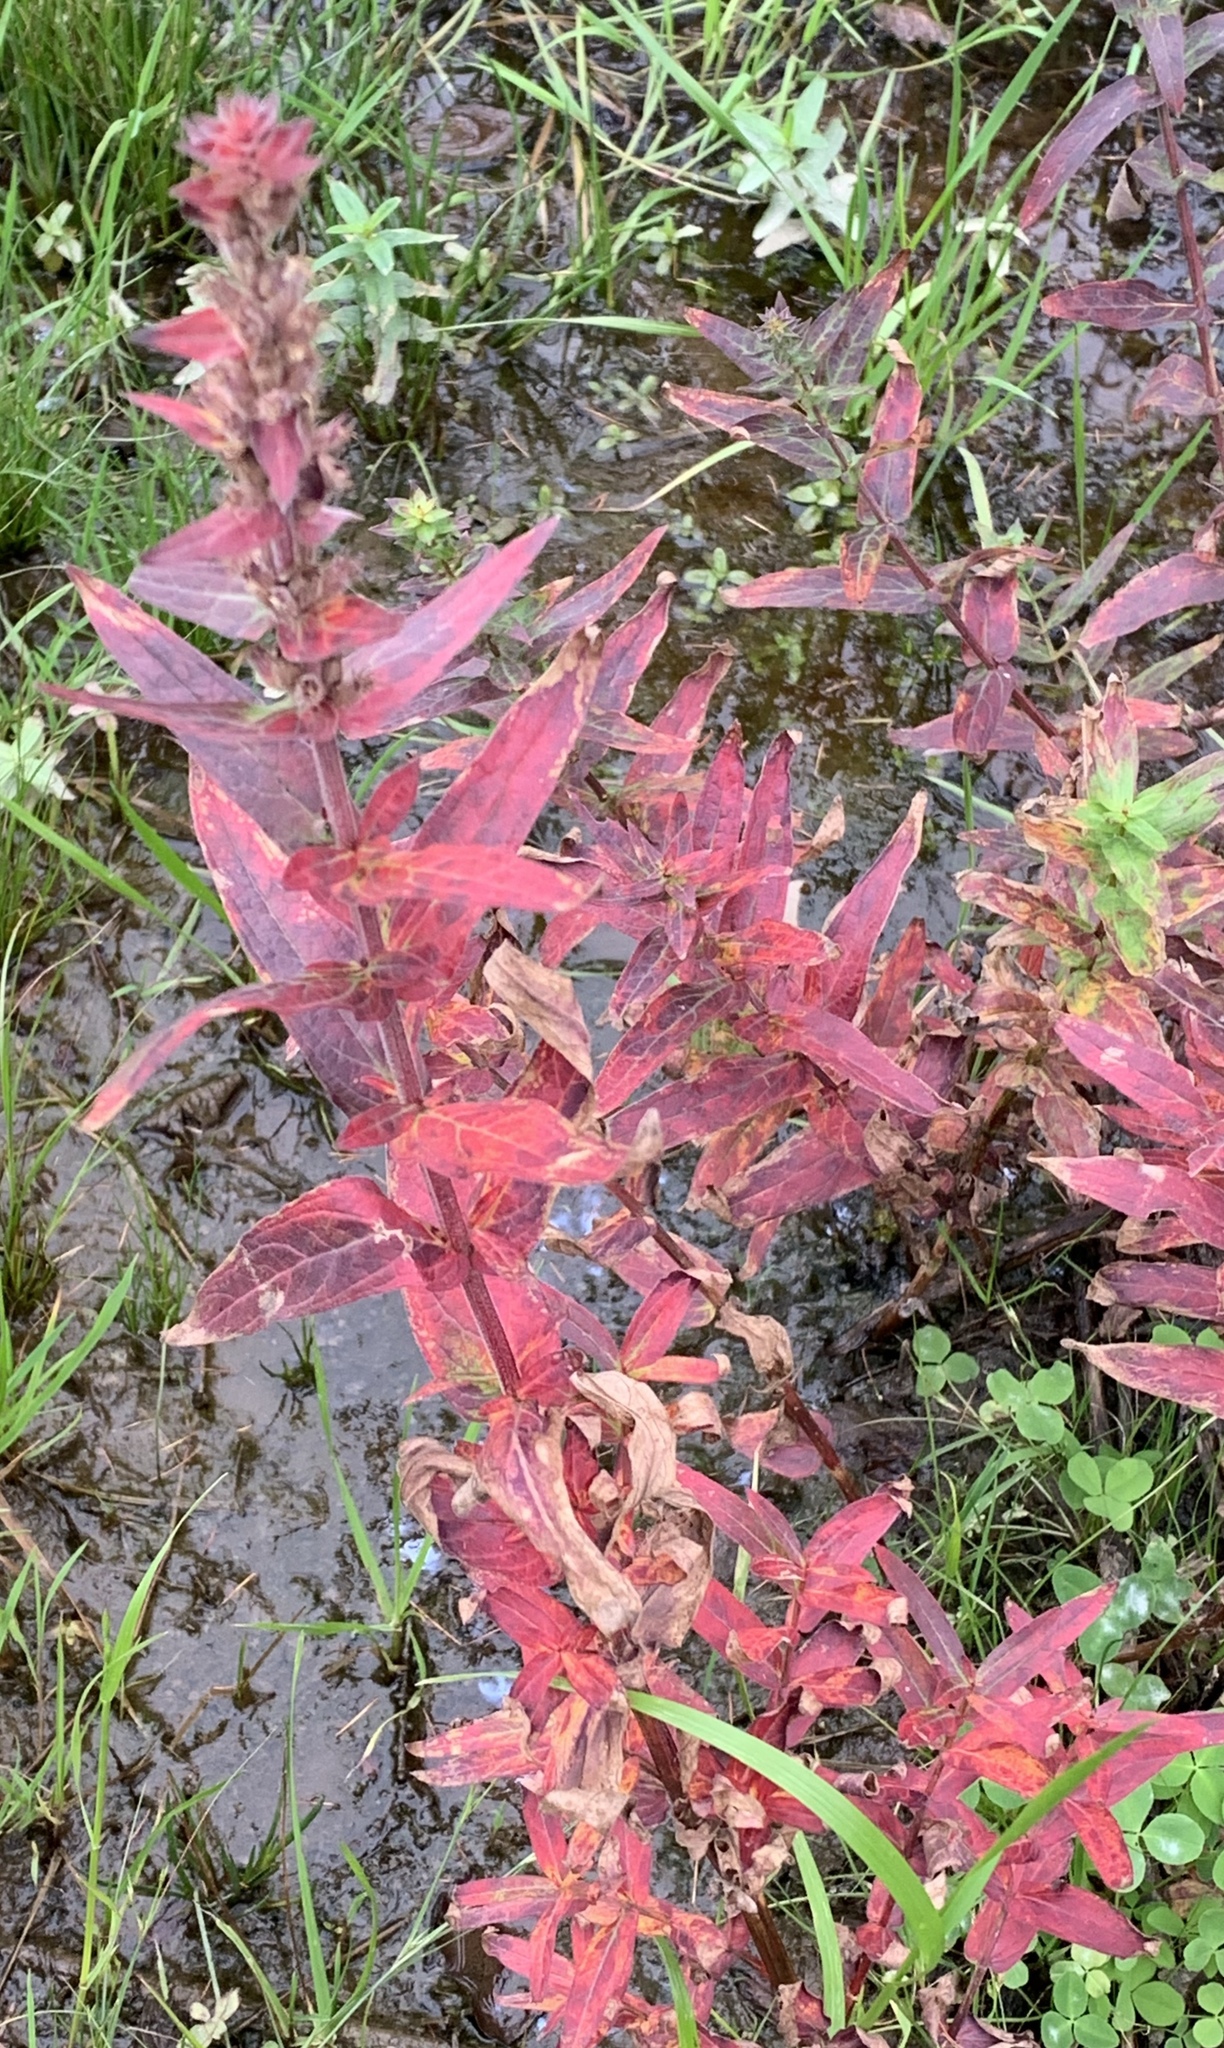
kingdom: Plantae
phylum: Tracheophyta
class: Magnoliopsida
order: Myrtales
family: Lythraceae
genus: Lythrum
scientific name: Lythrum salicaria
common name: Purple loosestrife
